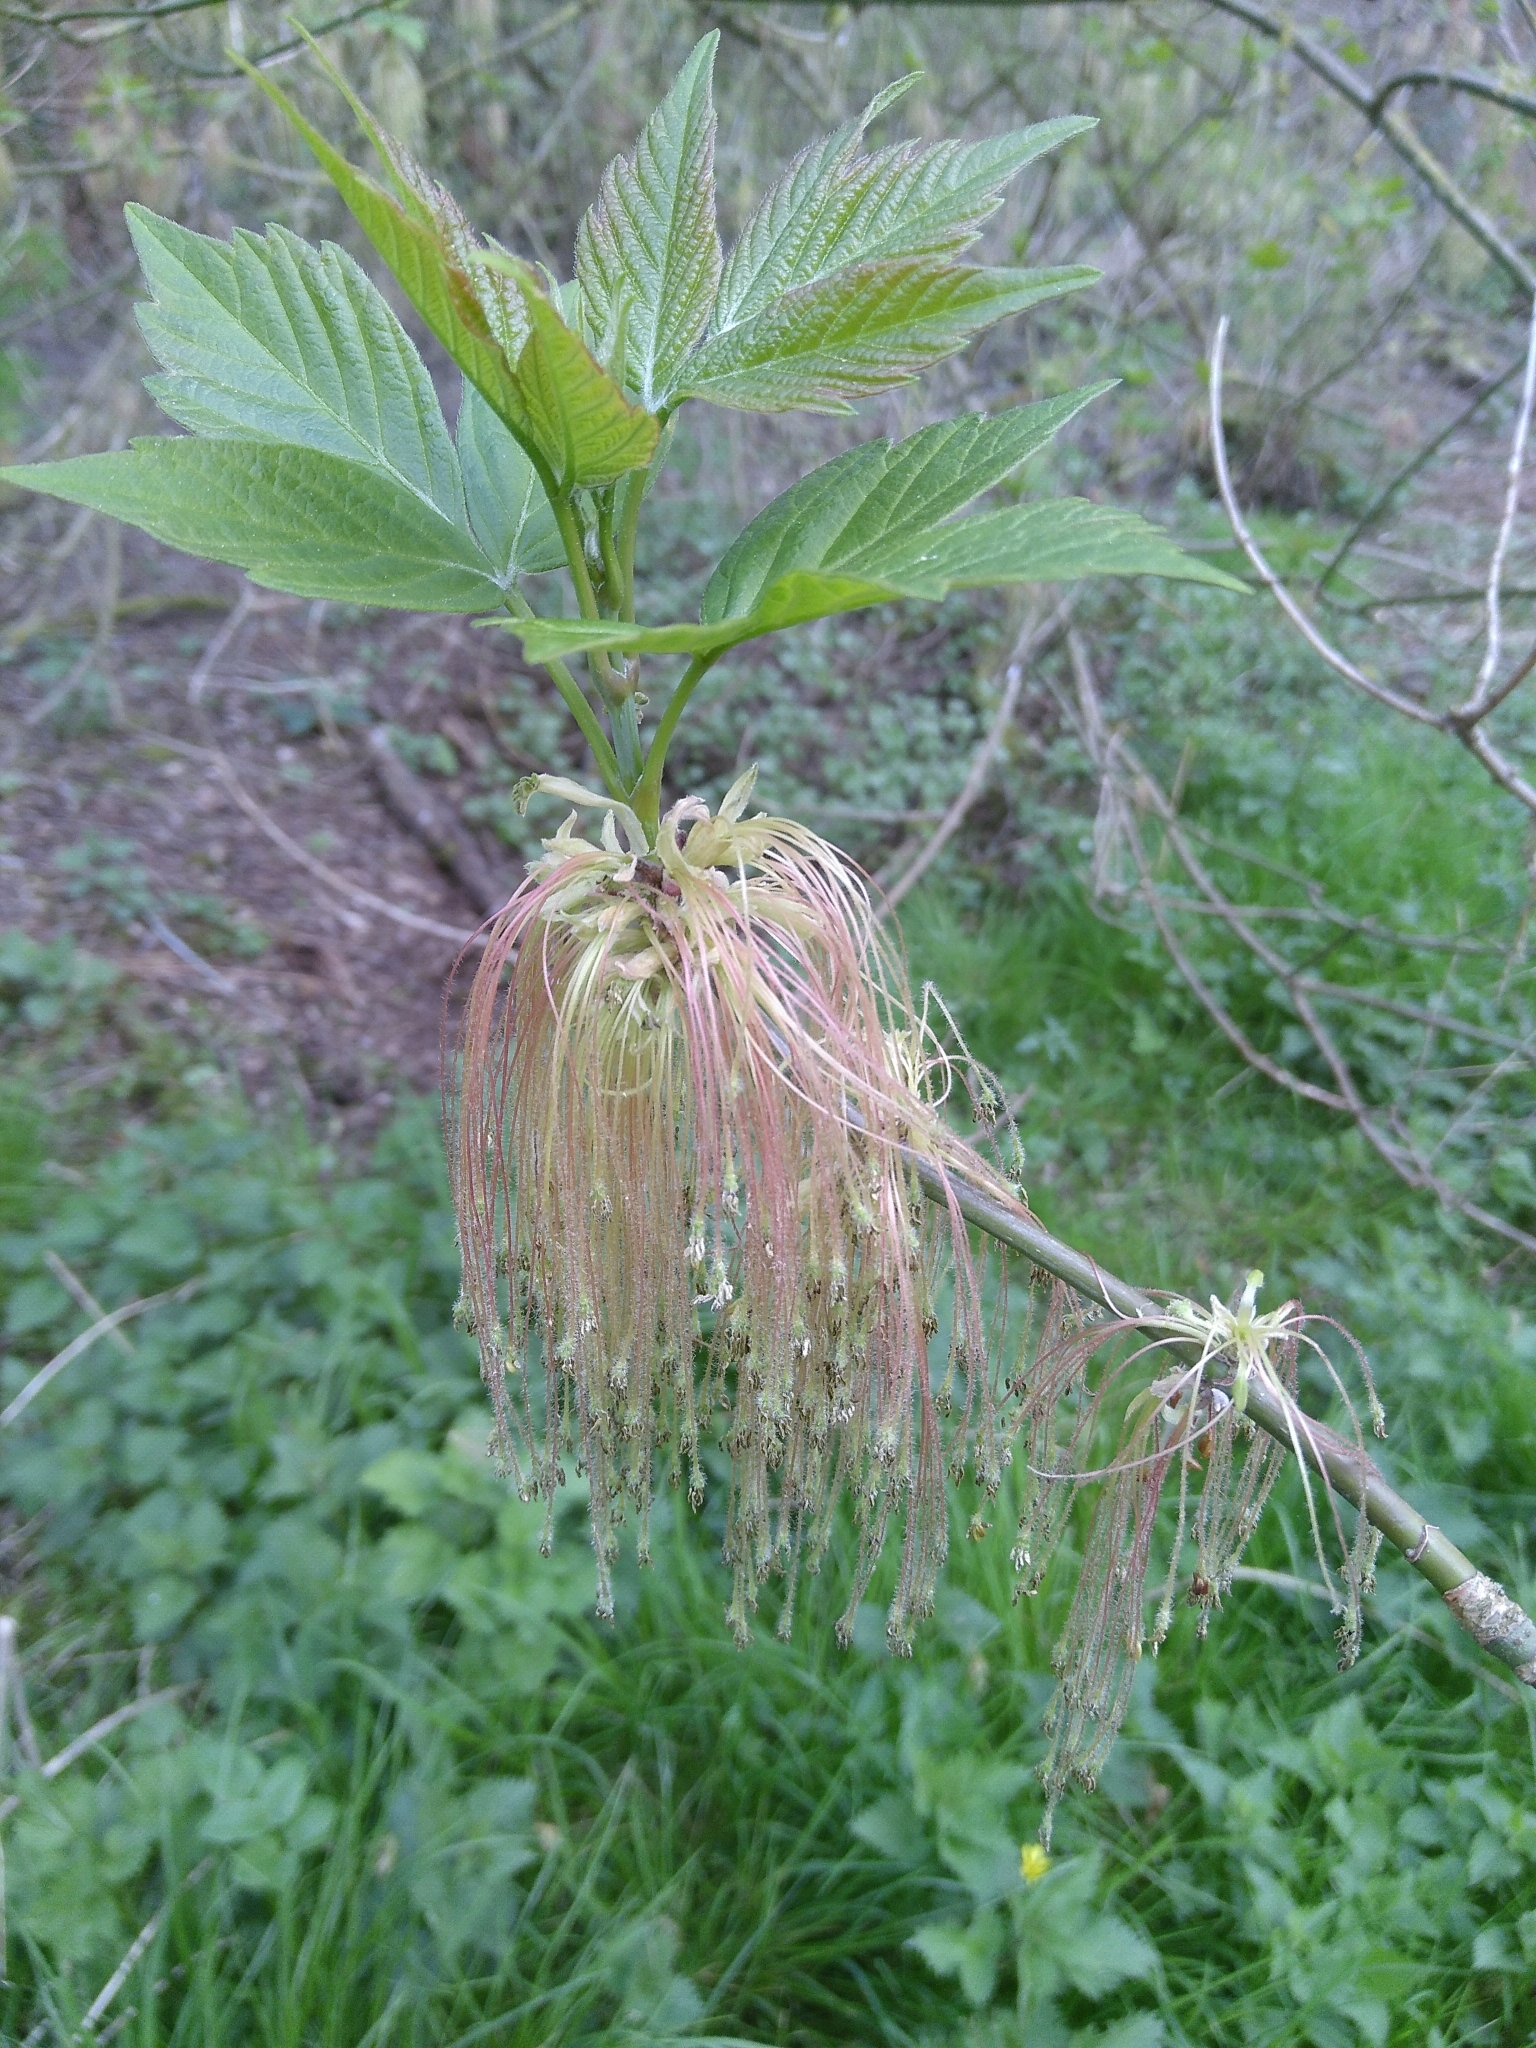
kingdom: Plantae
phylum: Tracheophyta
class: Magnoliopsida
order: Sapindales
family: Sapindaceae
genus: Acer
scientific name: Acer negundo
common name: Ashleaf maple
